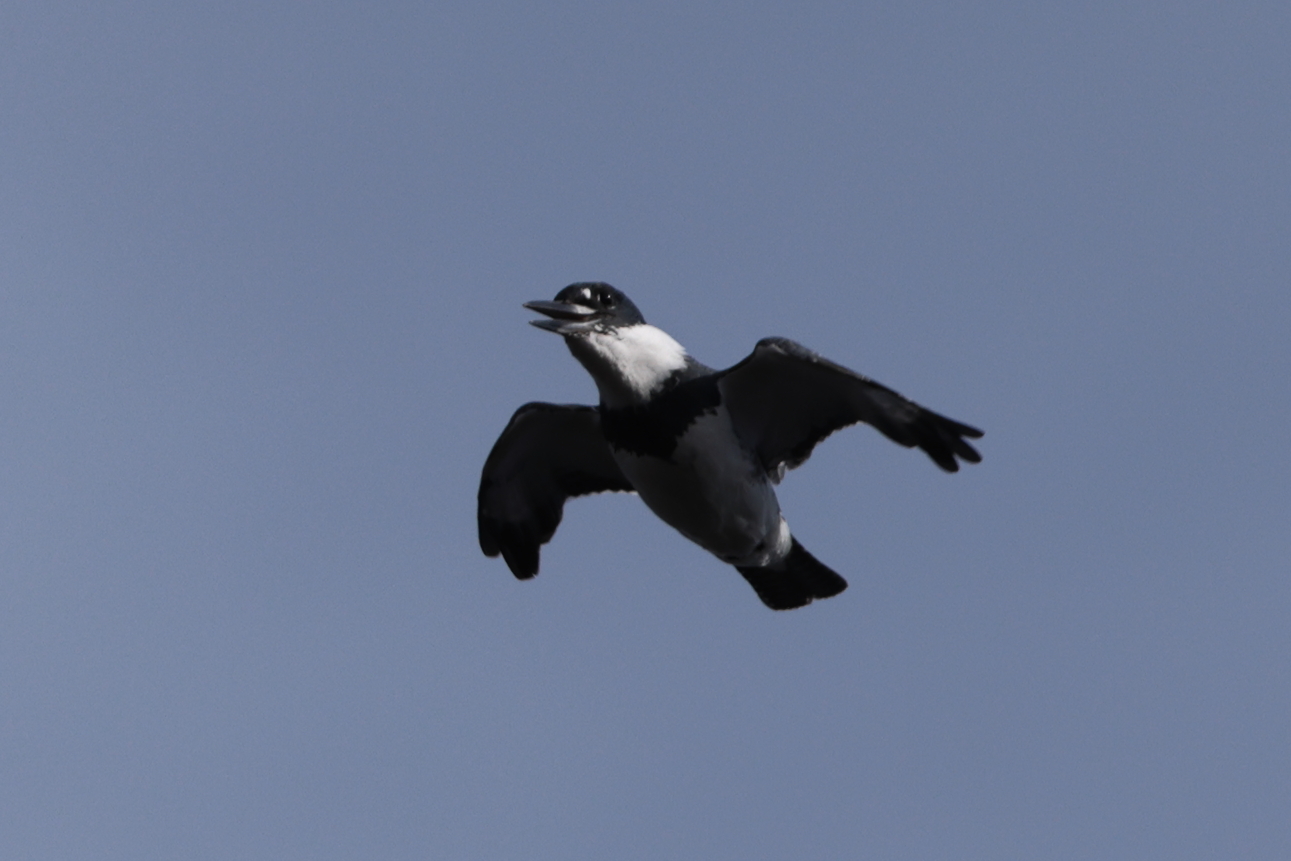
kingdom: Animalia
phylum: Chordata
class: Aves
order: Coraciiformes
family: Alcedinidae
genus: Megaceryle
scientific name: Megaceryle alcyon
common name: Belted kingfisher
